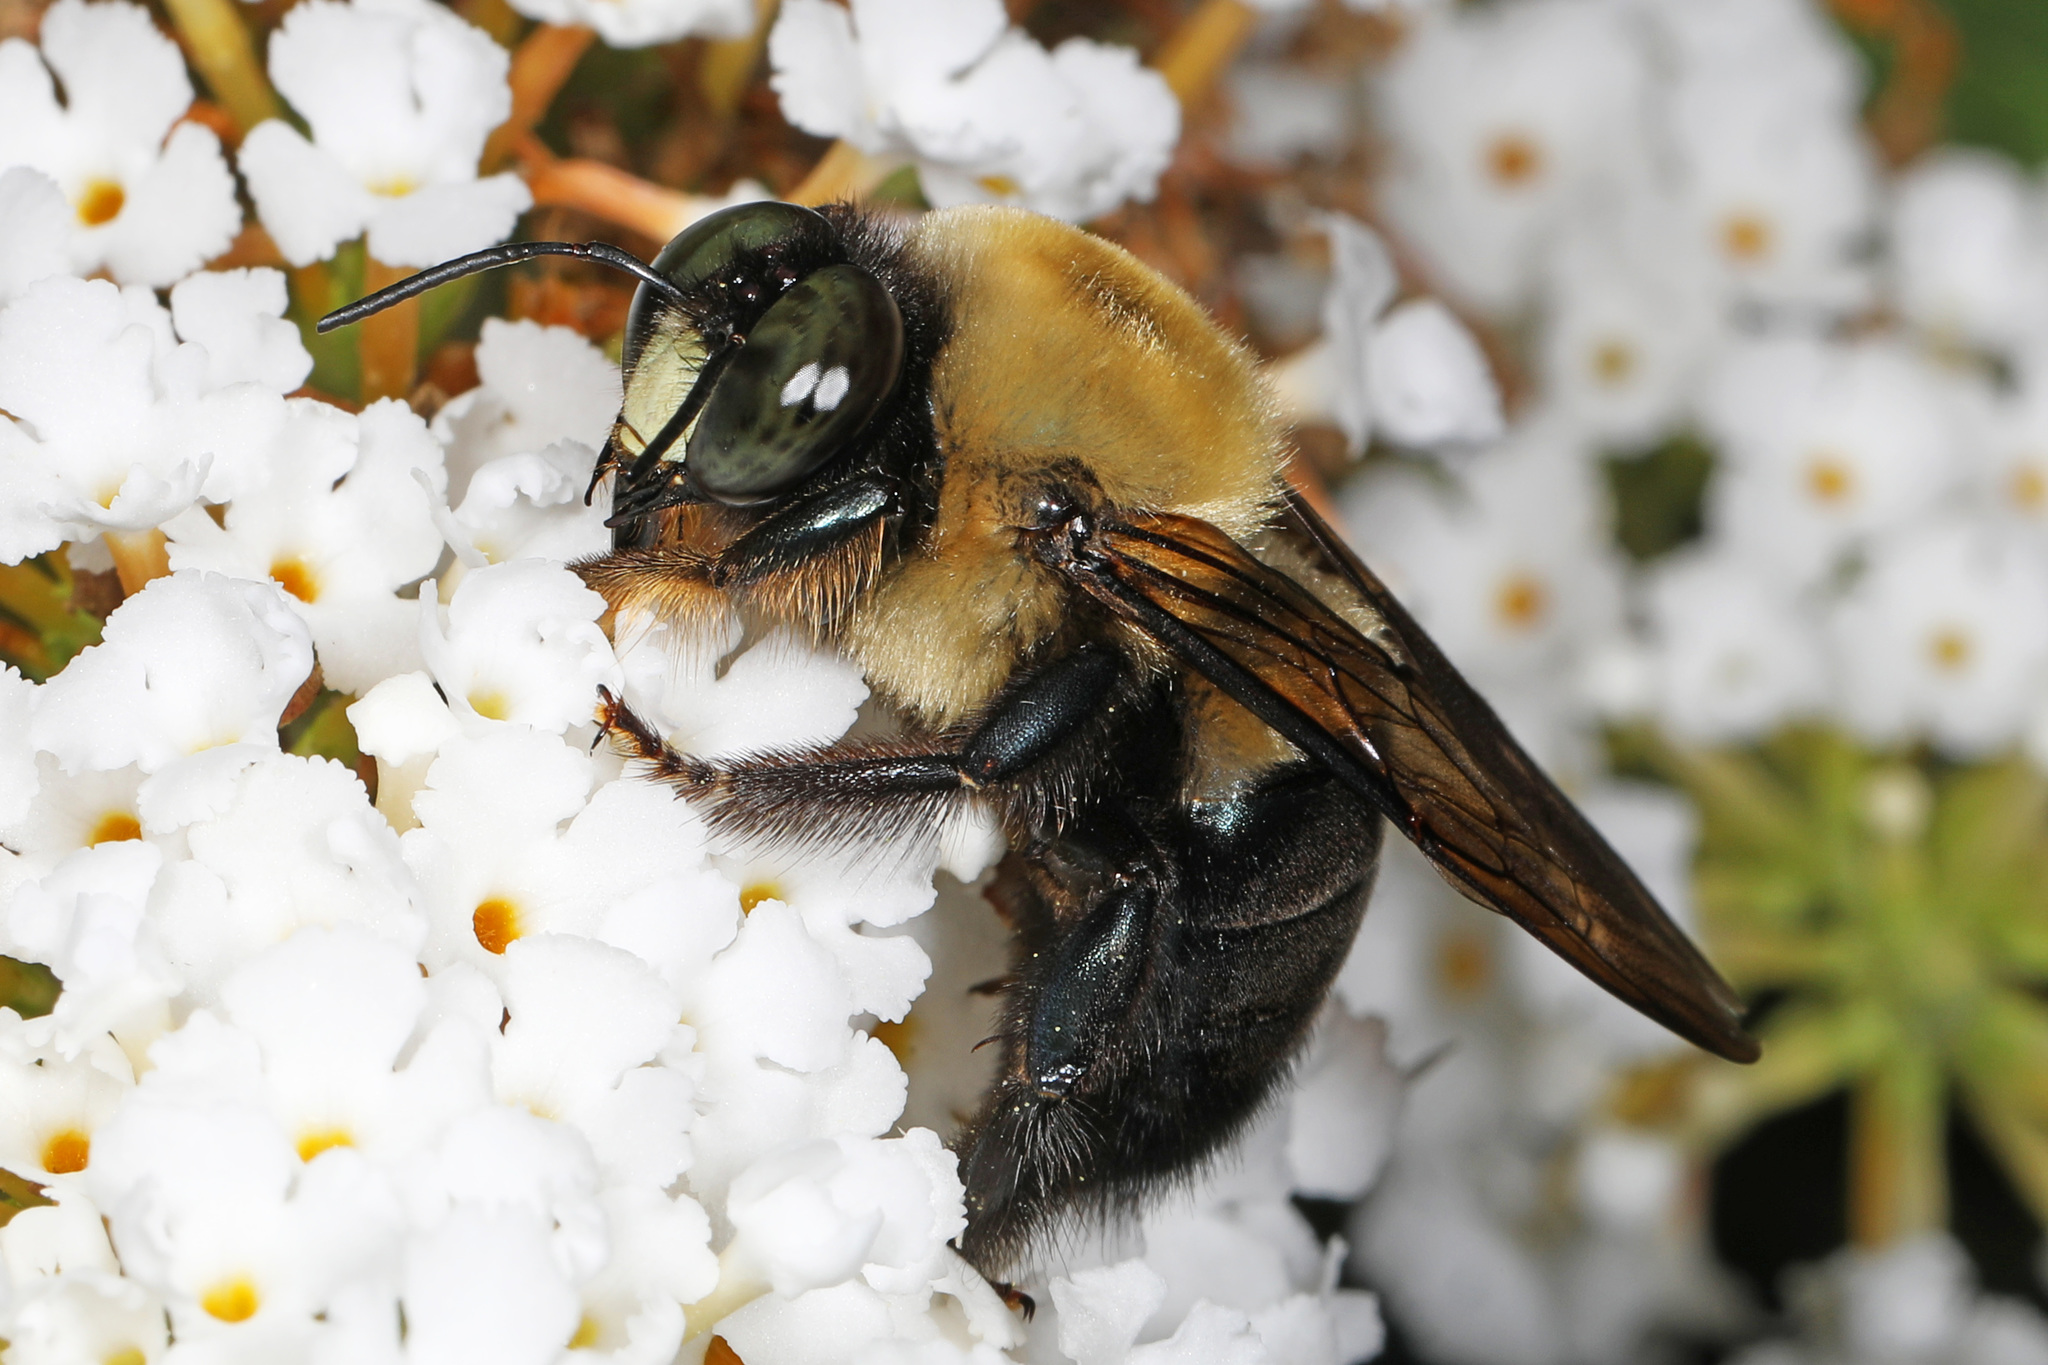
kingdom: Animalia
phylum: Arthropoda
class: Insecta
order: Hymenoptera
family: Apidae
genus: Xylocopa
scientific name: Xylocopa virginica
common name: Carpenter bee
